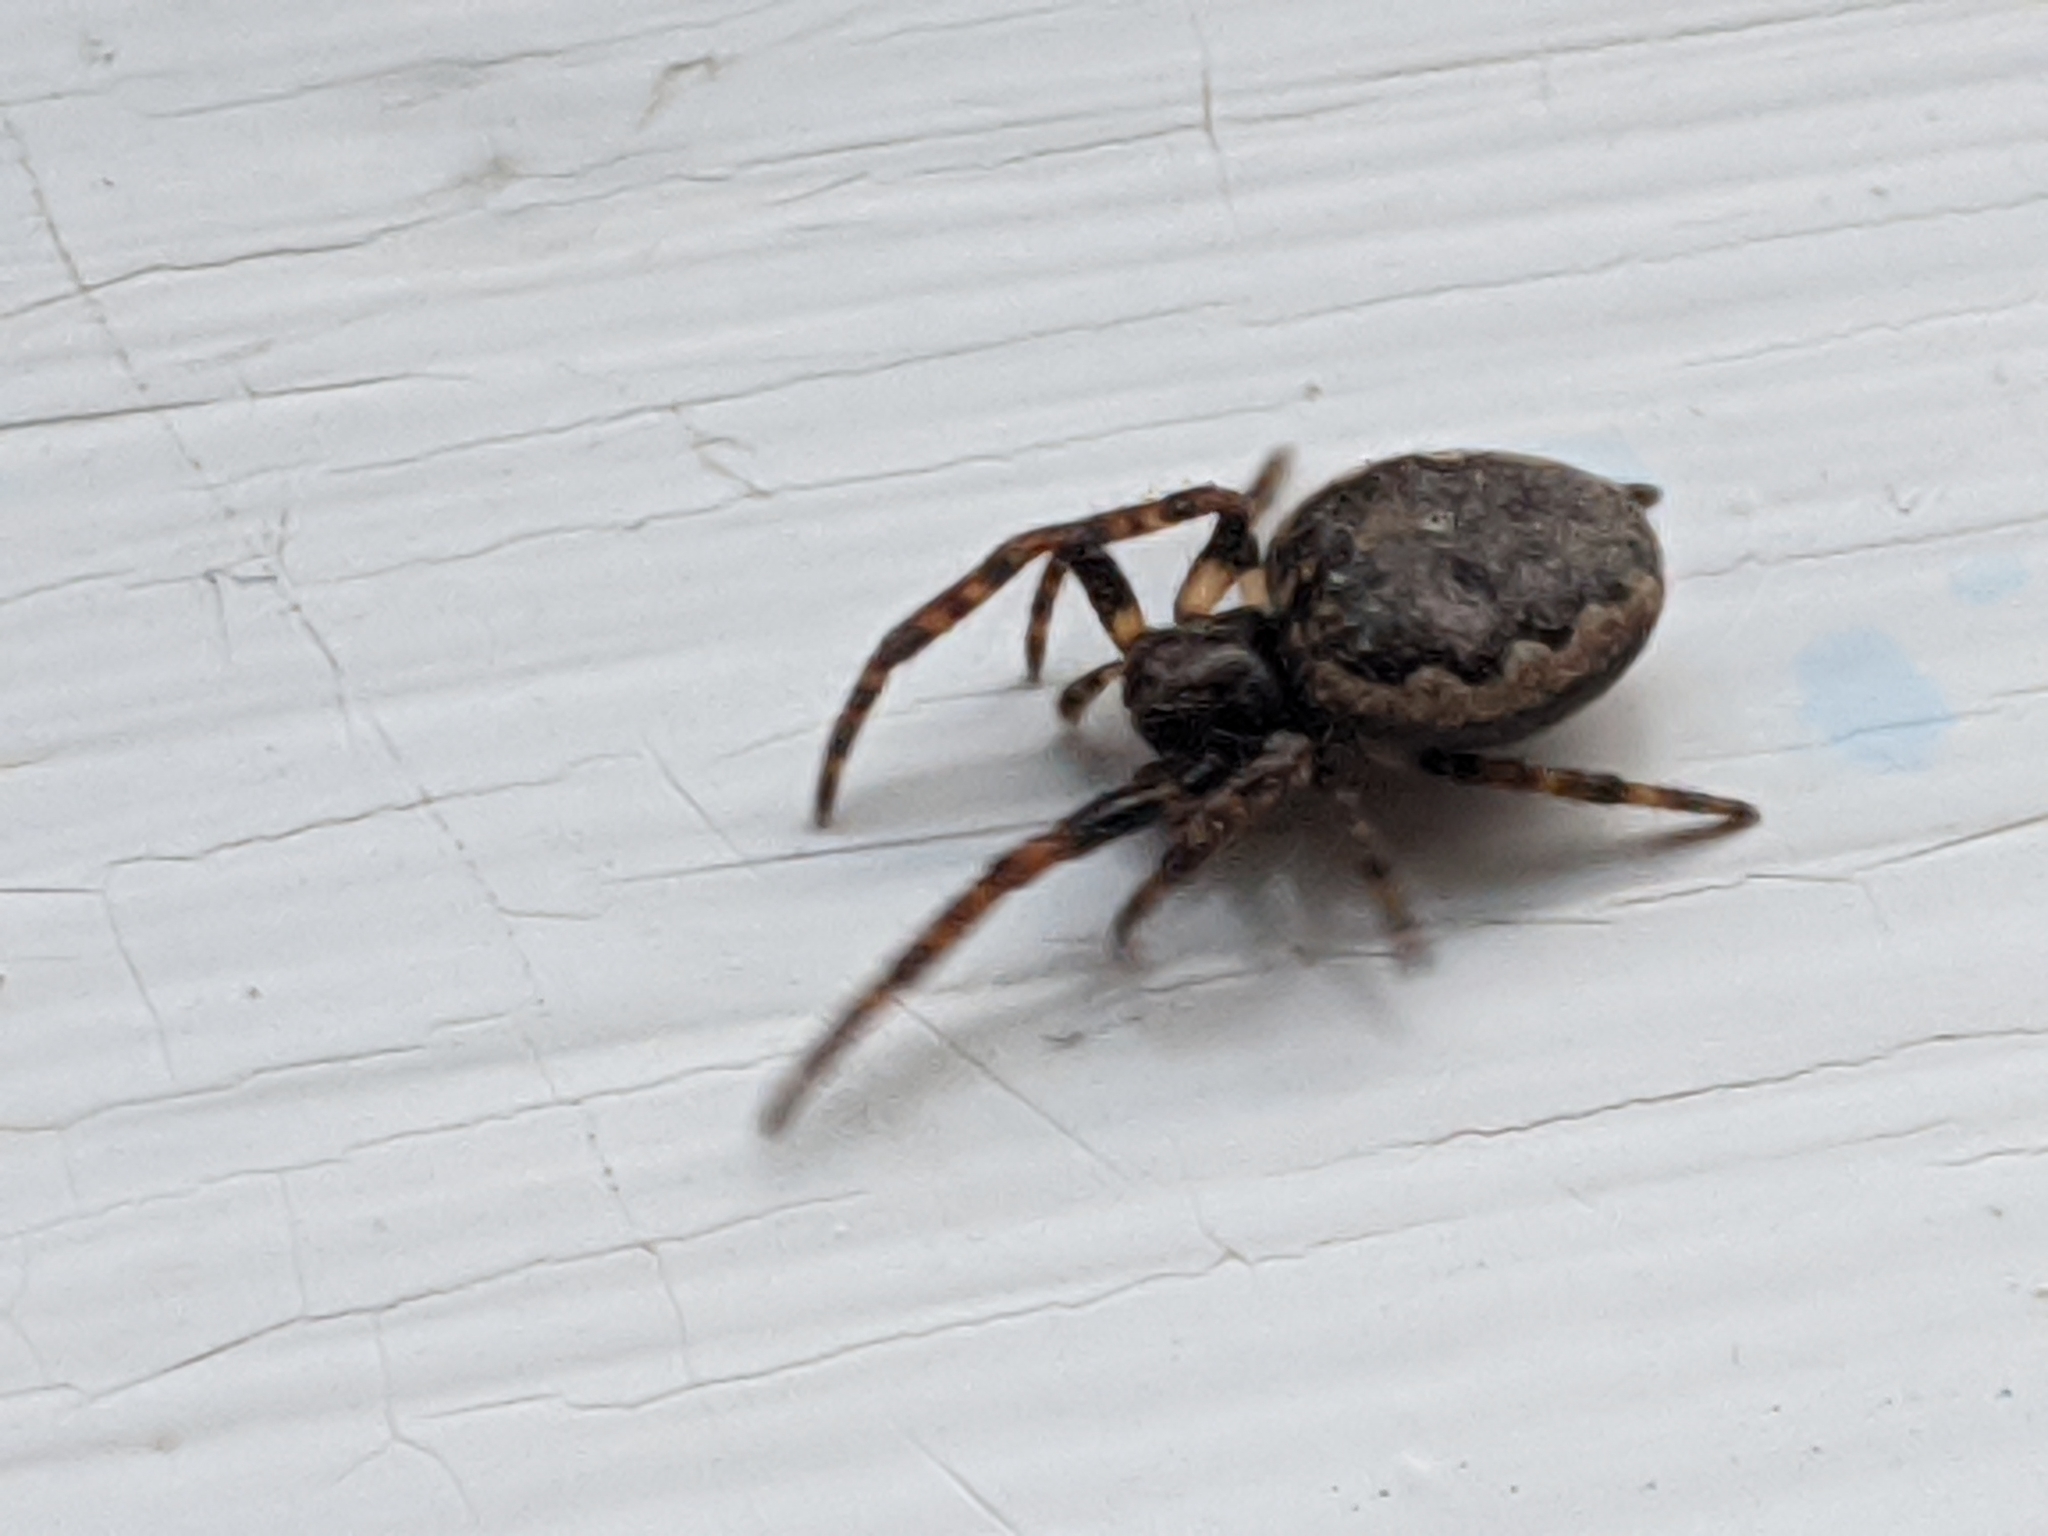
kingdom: Animalia
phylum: Arthropoda
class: Arachnida
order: Araneae
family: Araneidae
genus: Nuctenea
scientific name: Nuctenea umbratica
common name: Toad spider
